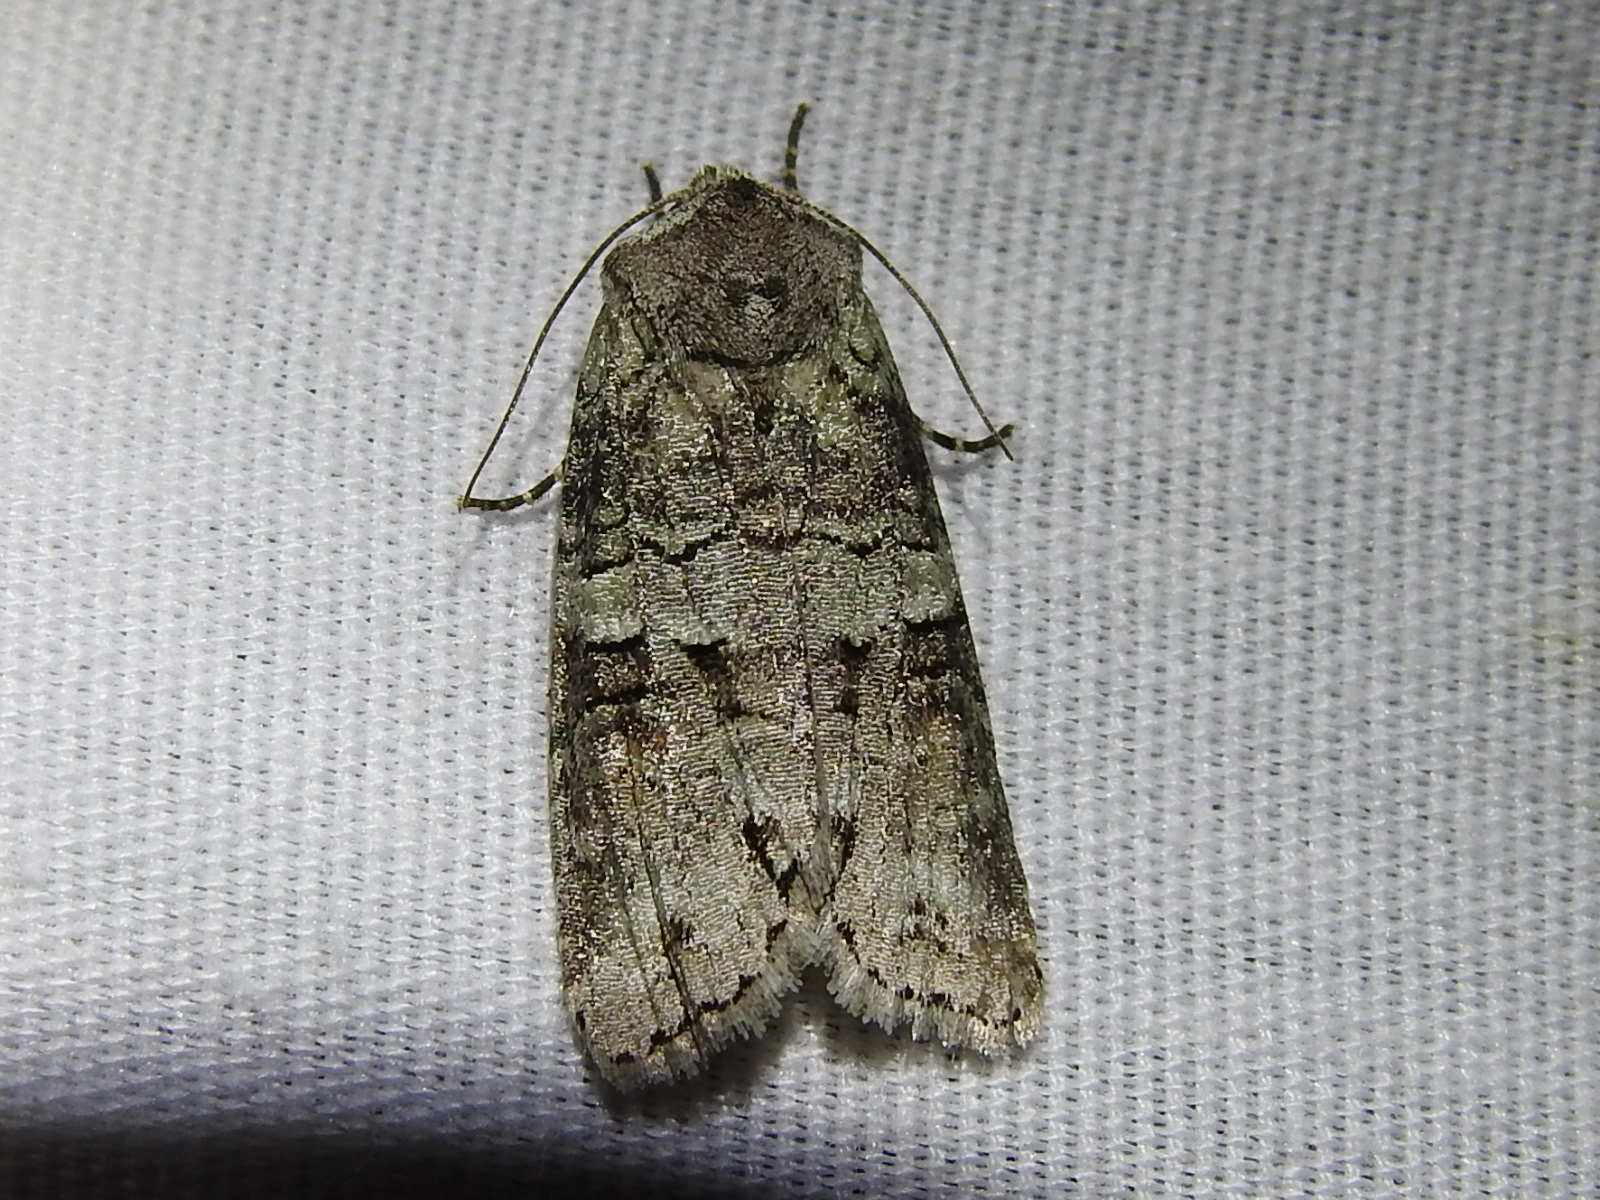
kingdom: Animalia
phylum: Arthropoda
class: Insecta
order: Lepidoptera
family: Noctuidae
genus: Egira
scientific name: Egira alternans
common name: Alternate woodling
